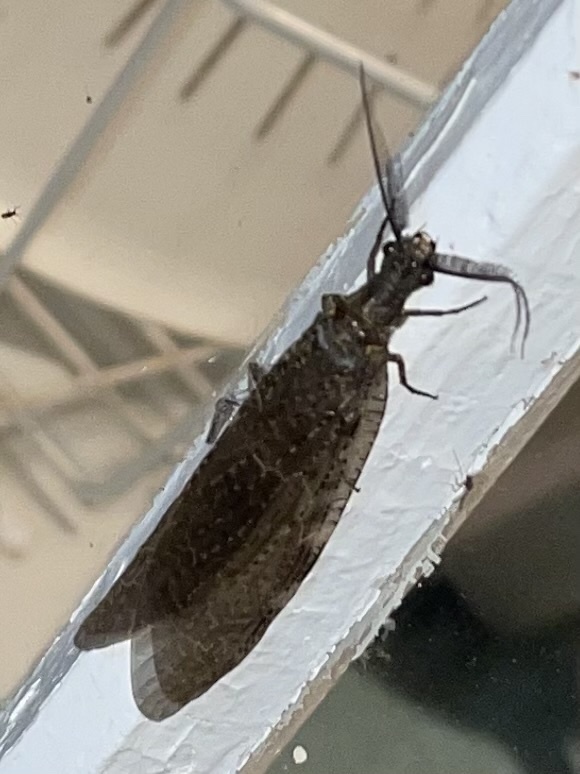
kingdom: Animalia
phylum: Arthropoda
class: Insecta
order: Megaloptera
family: Corydalidae
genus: Chauliodes
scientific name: Chauliodes pectinicornis
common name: Summer fishfly
